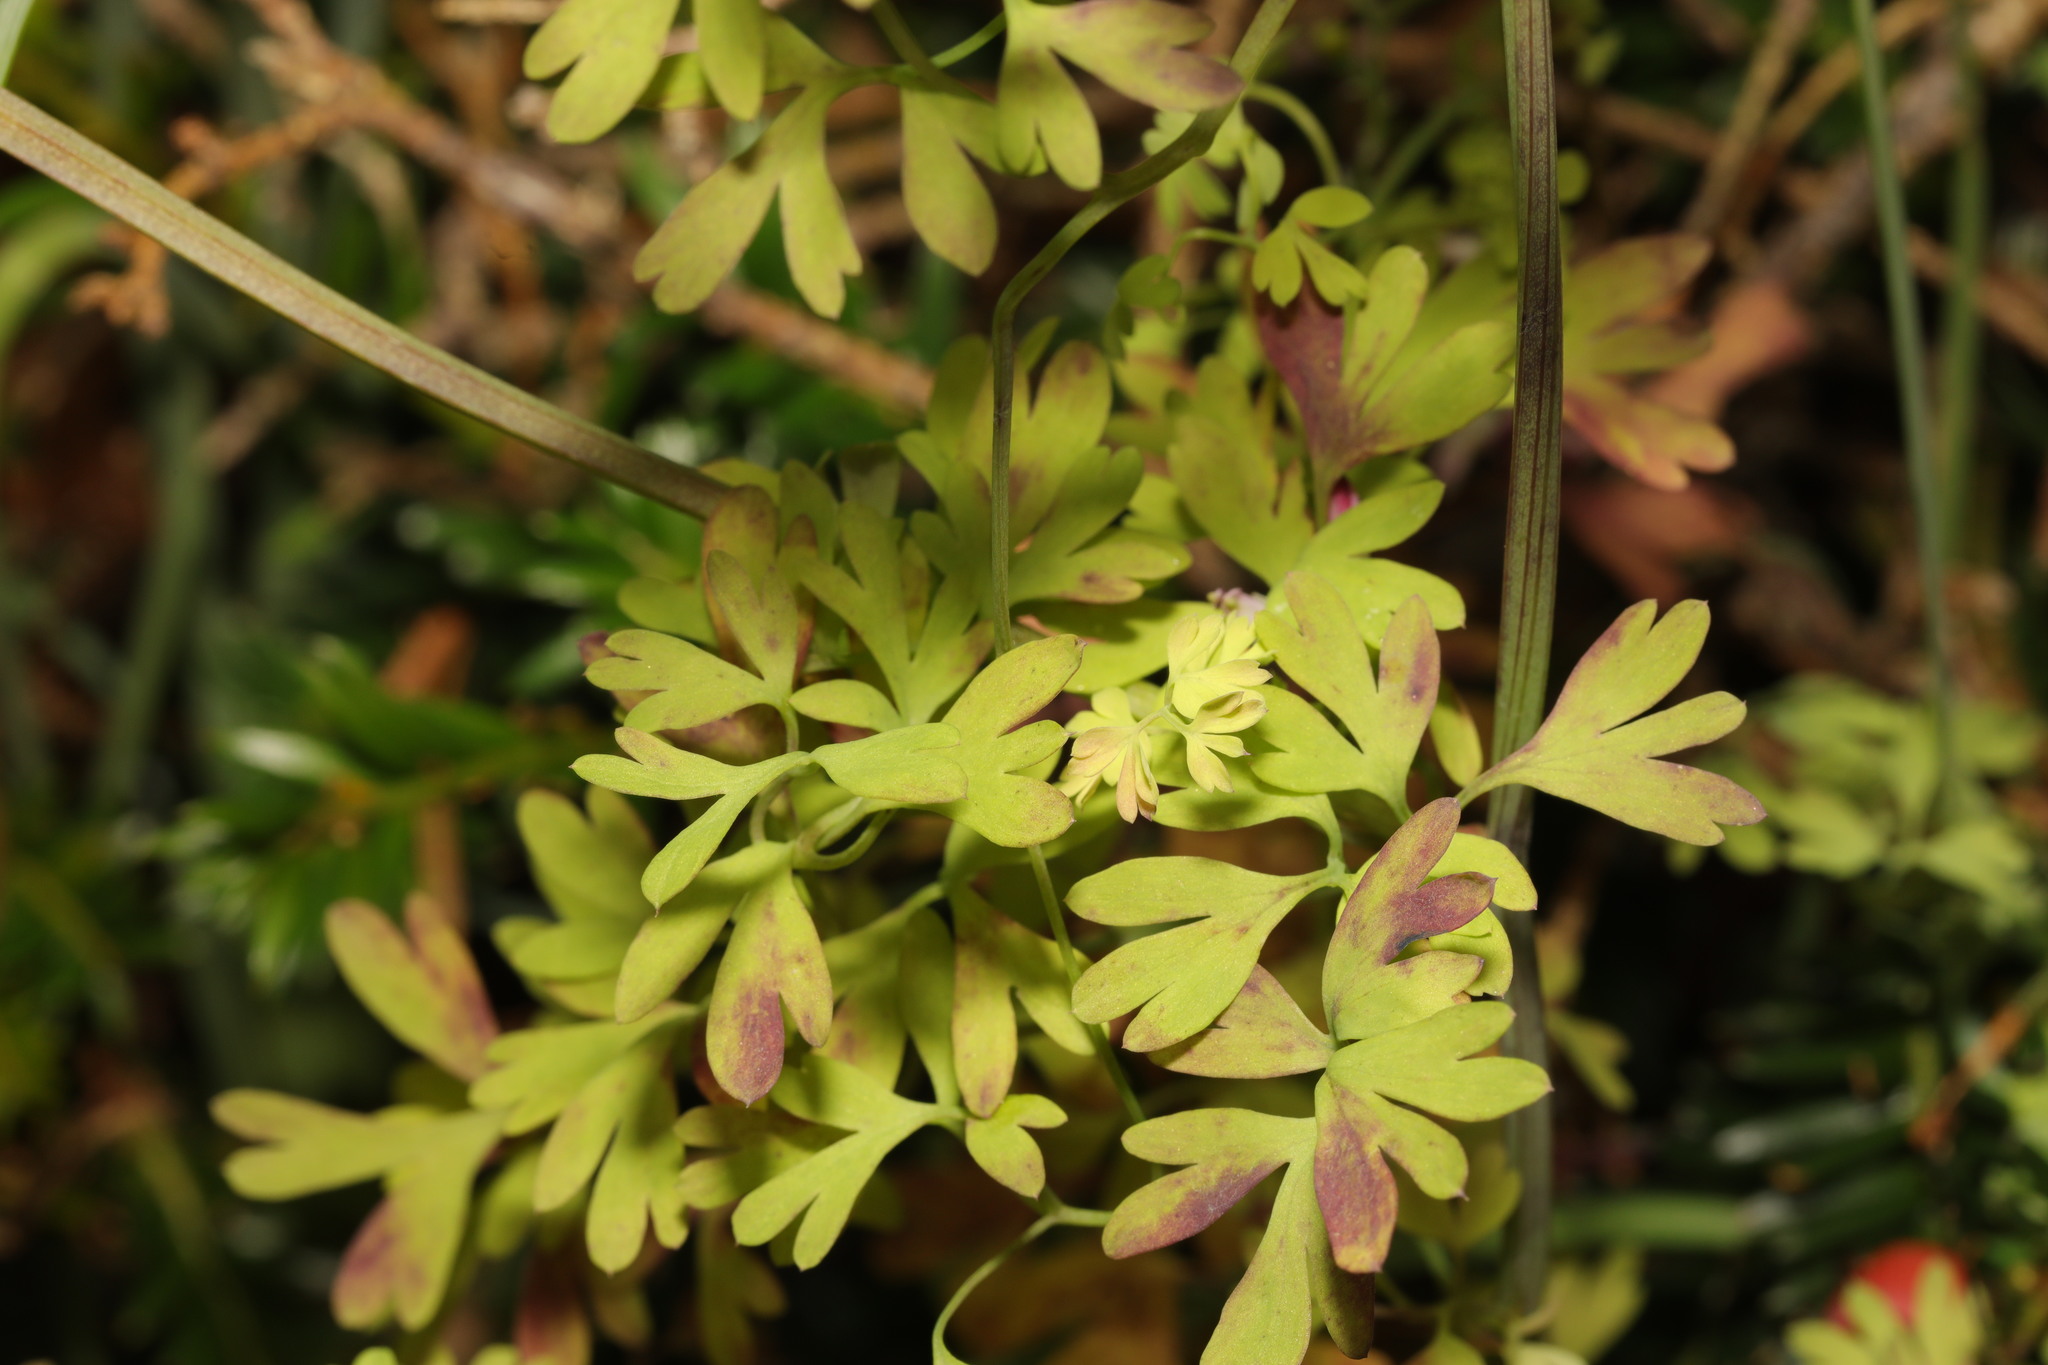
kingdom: Plantae
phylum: Tracheophyta
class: Magnoliopsida
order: Ranunculales
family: Papaveraceae
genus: Fumaria
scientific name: Fumaria muralis
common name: Common ramping-fumitory
